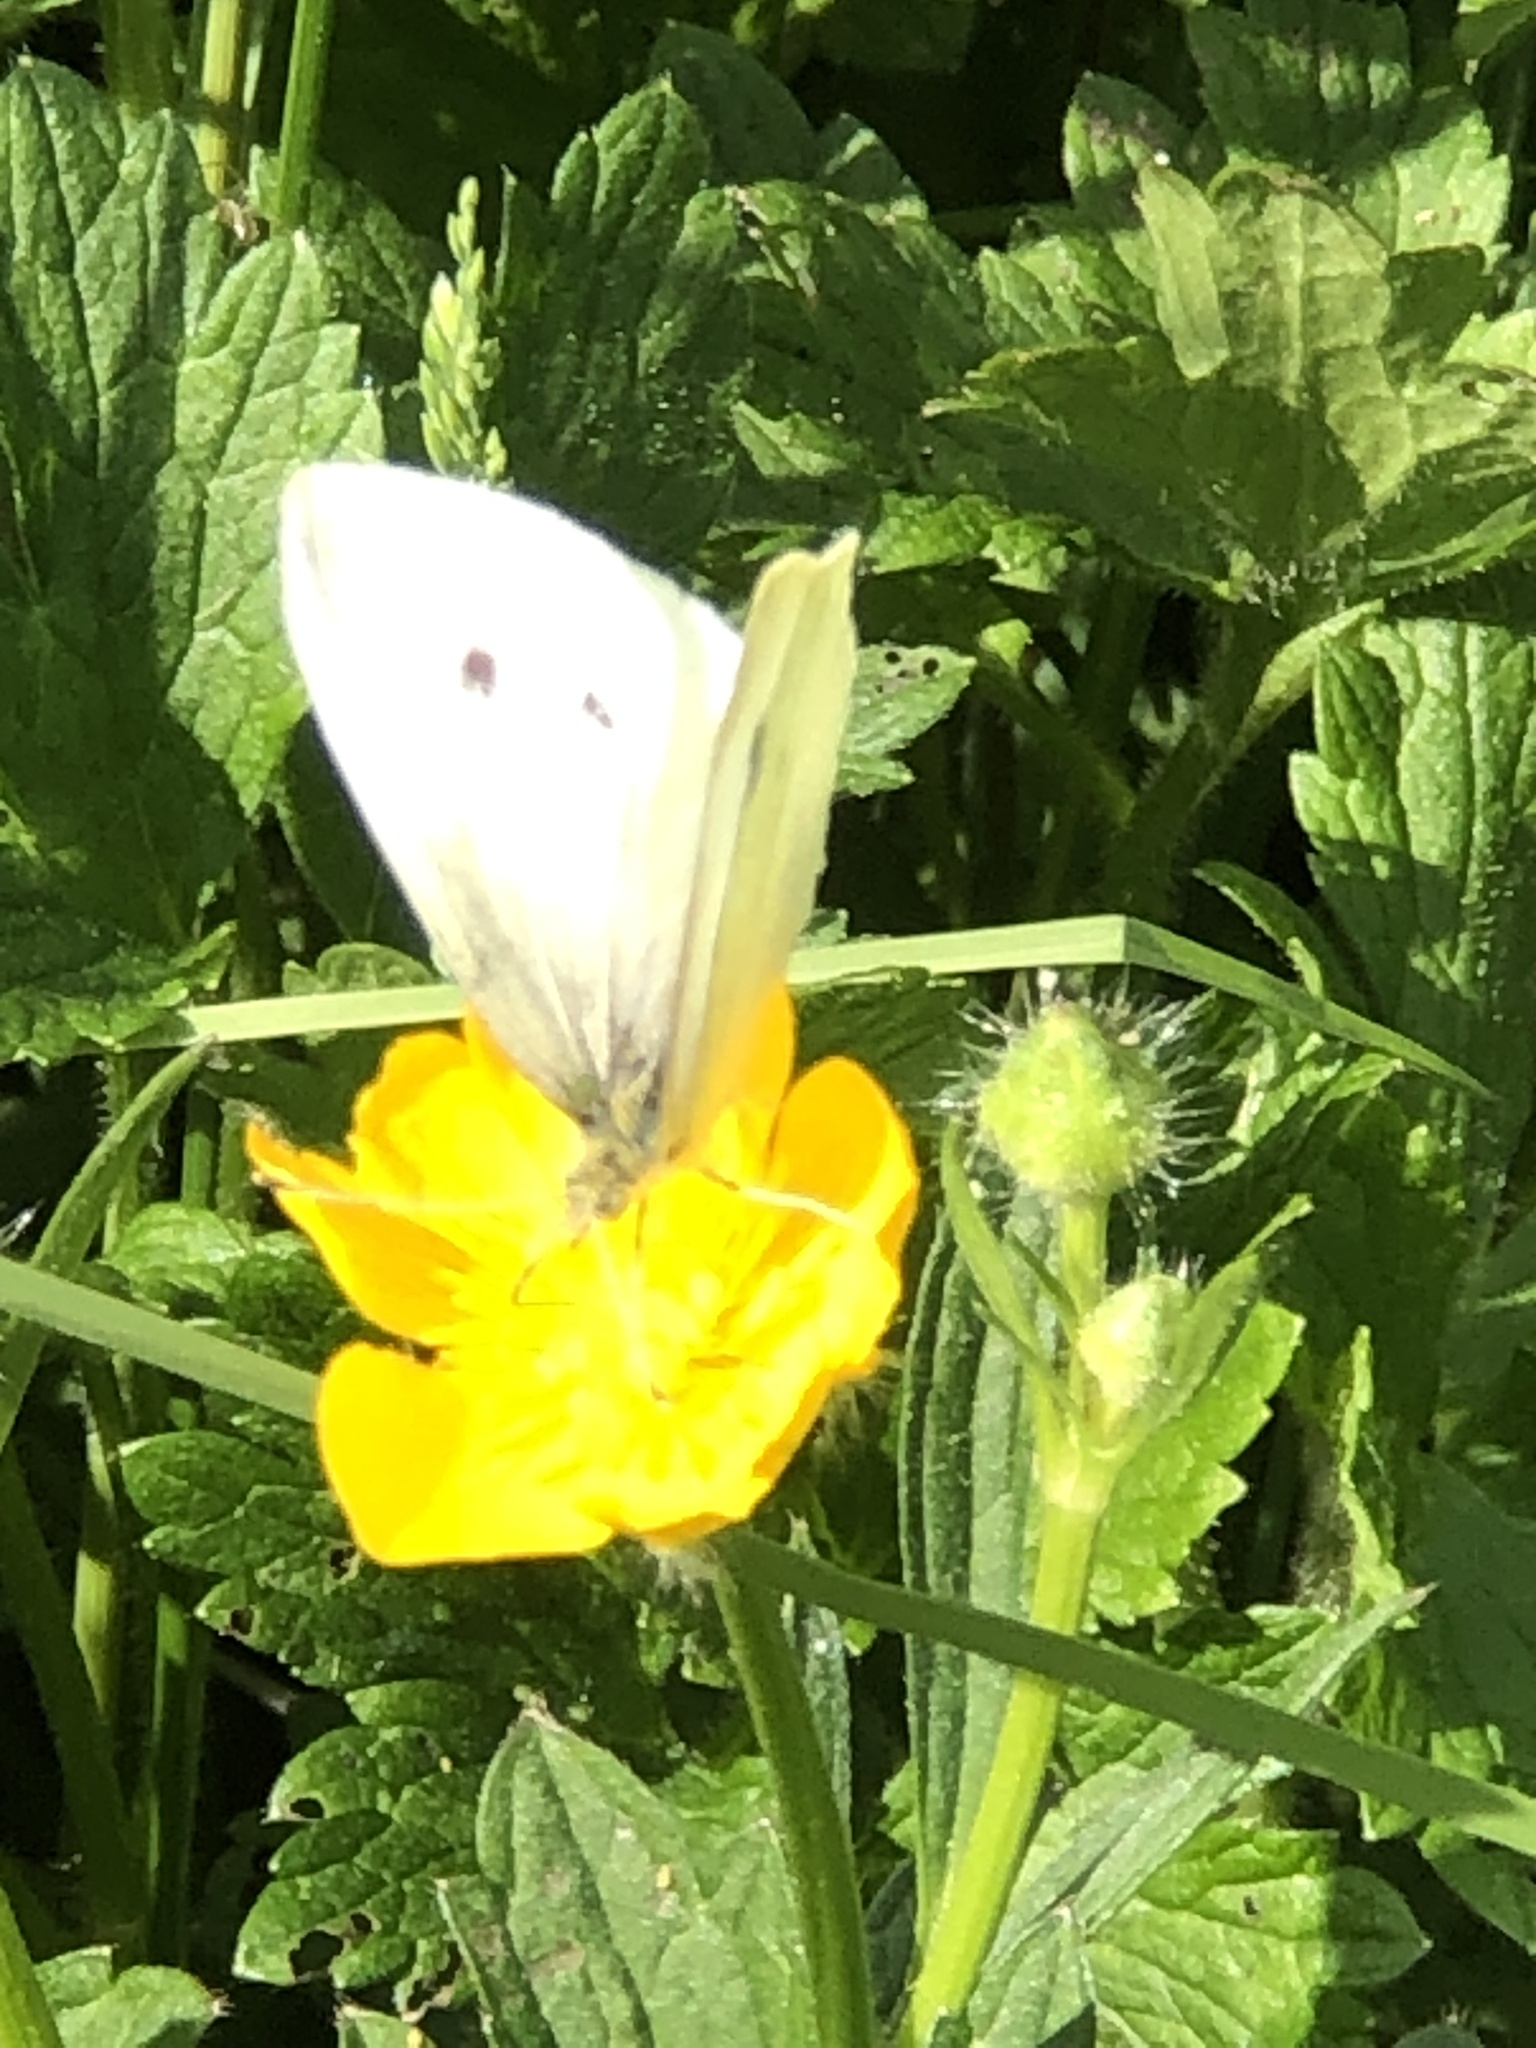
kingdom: Animalia
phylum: Arthropoda
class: Insecta
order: Lepidoptera
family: Pieridae
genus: Pieris
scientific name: Pieris rapae
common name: Small white
